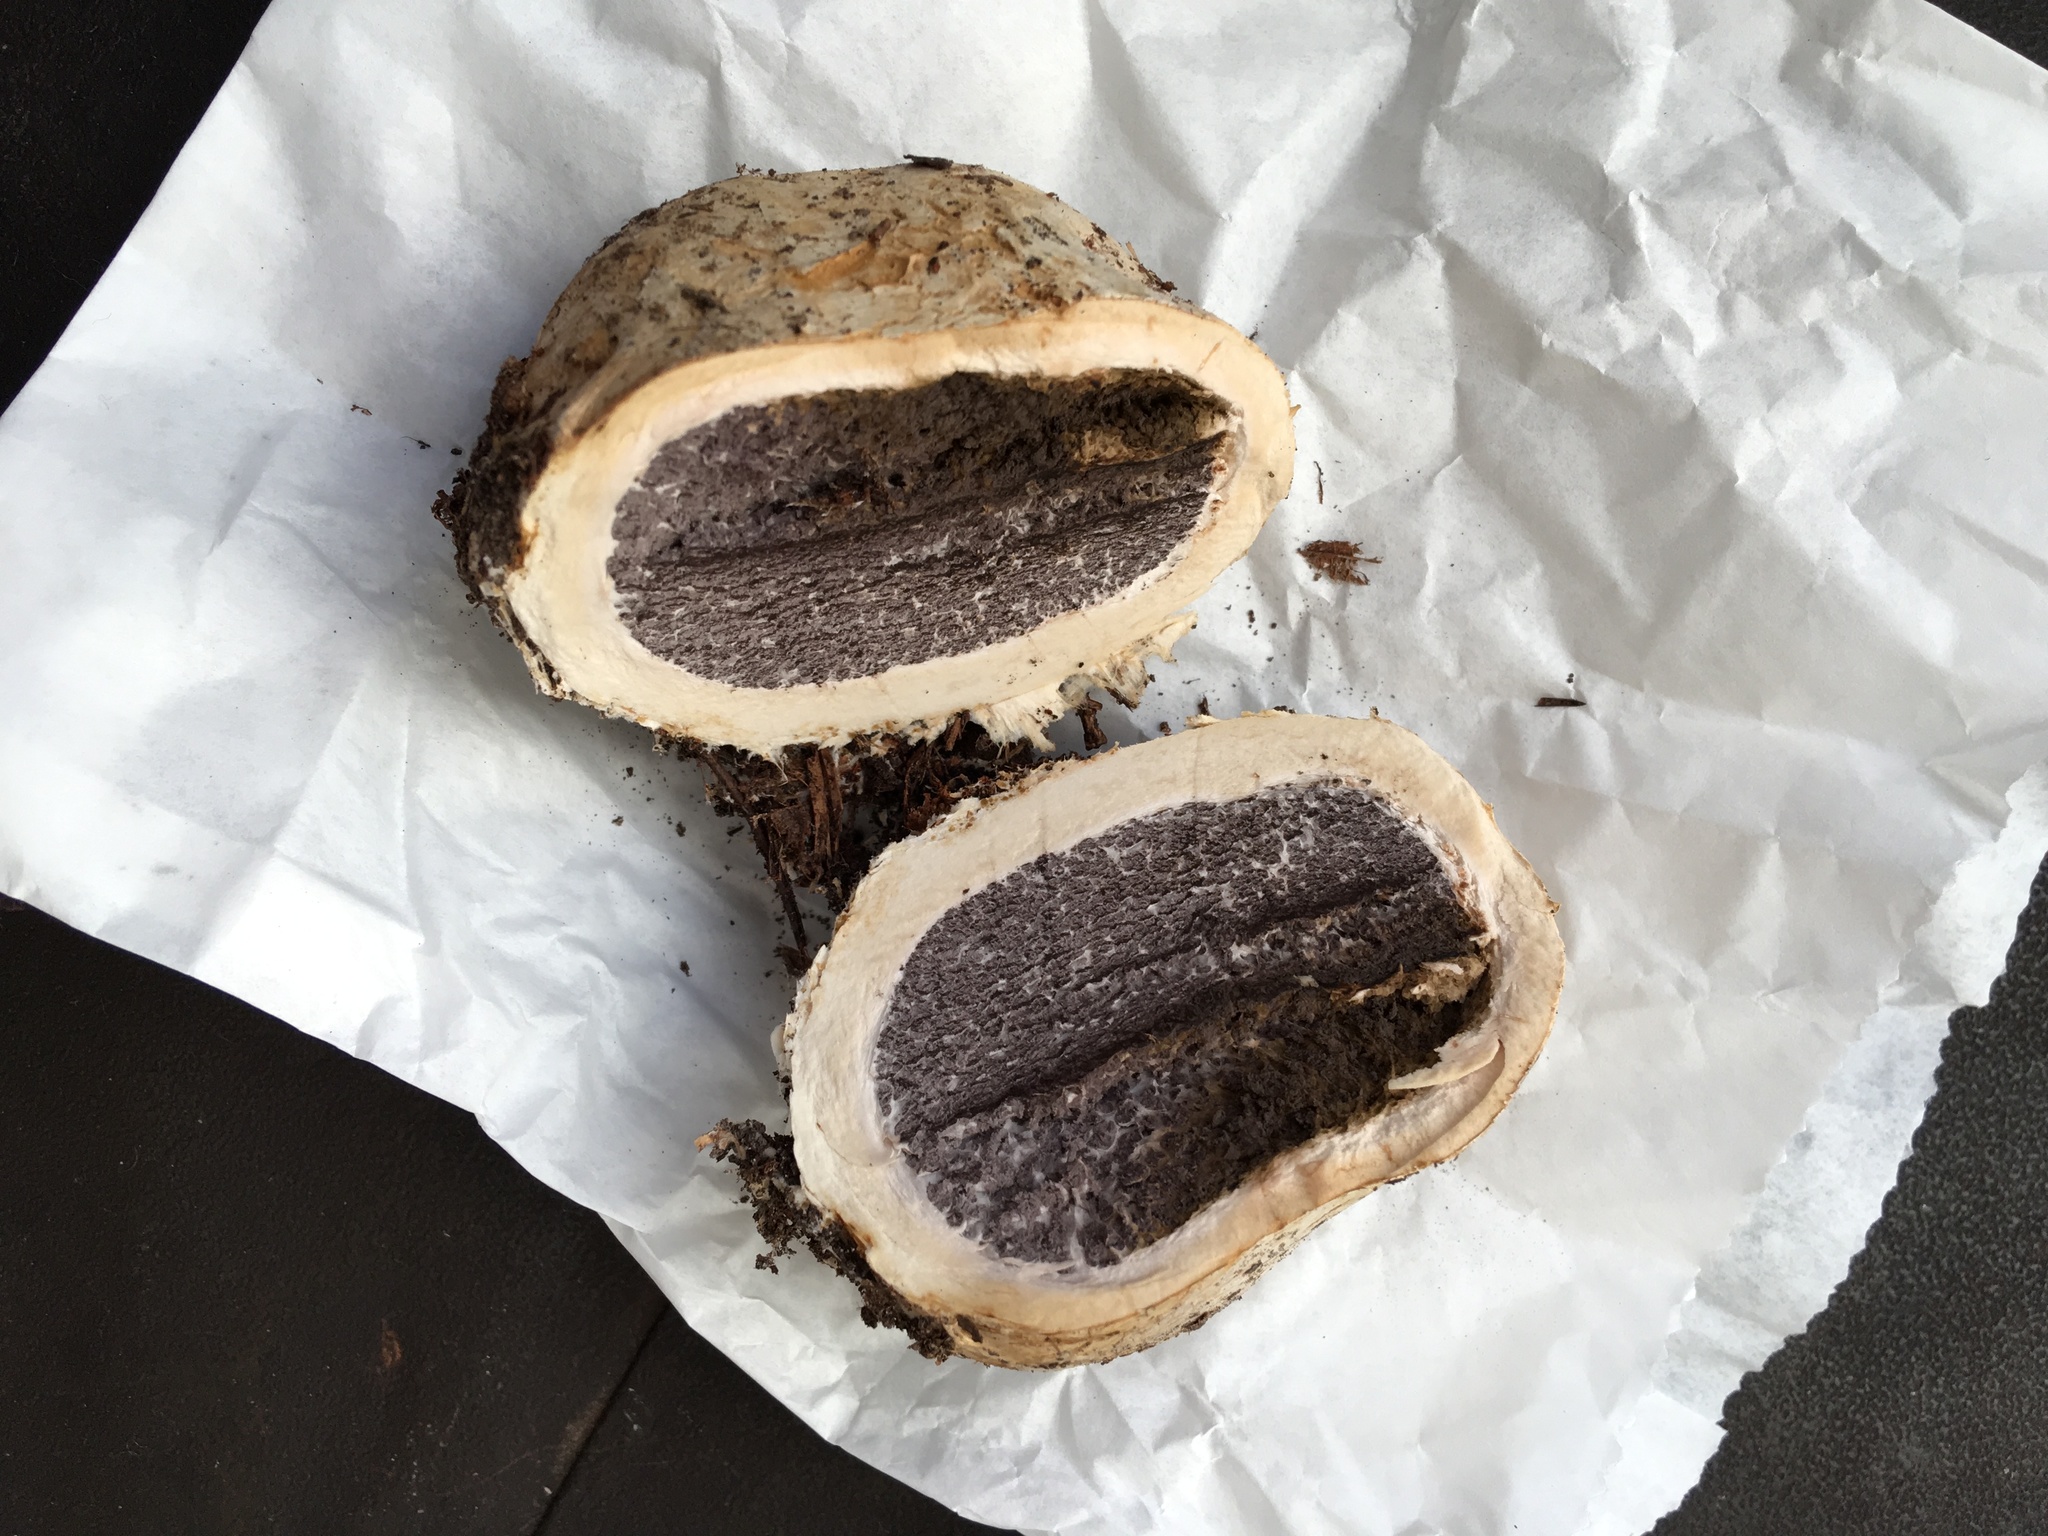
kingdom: Fungi
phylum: Basidiomycota
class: Agaricomycetes
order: Boletales
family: Sclerodermataceae
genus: Scleroderma
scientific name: Scleroderma polyrhizum
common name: Many-rooted earthball
